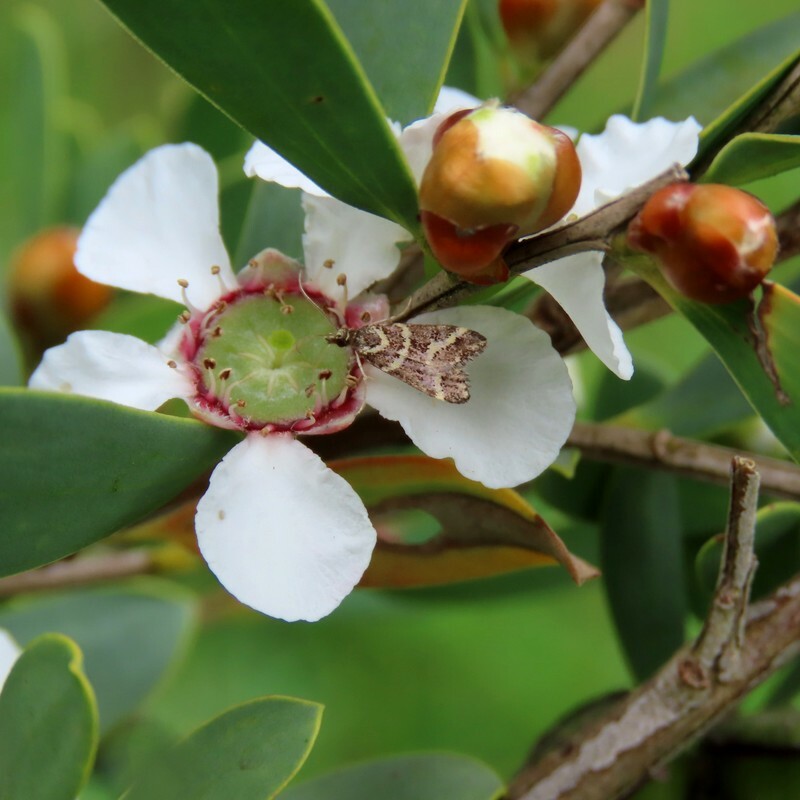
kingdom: Animalia
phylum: Arthropoda
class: Insecta
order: Lepidoptera
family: Crambidae
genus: Scoparia
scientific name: Scoparia spelaea
